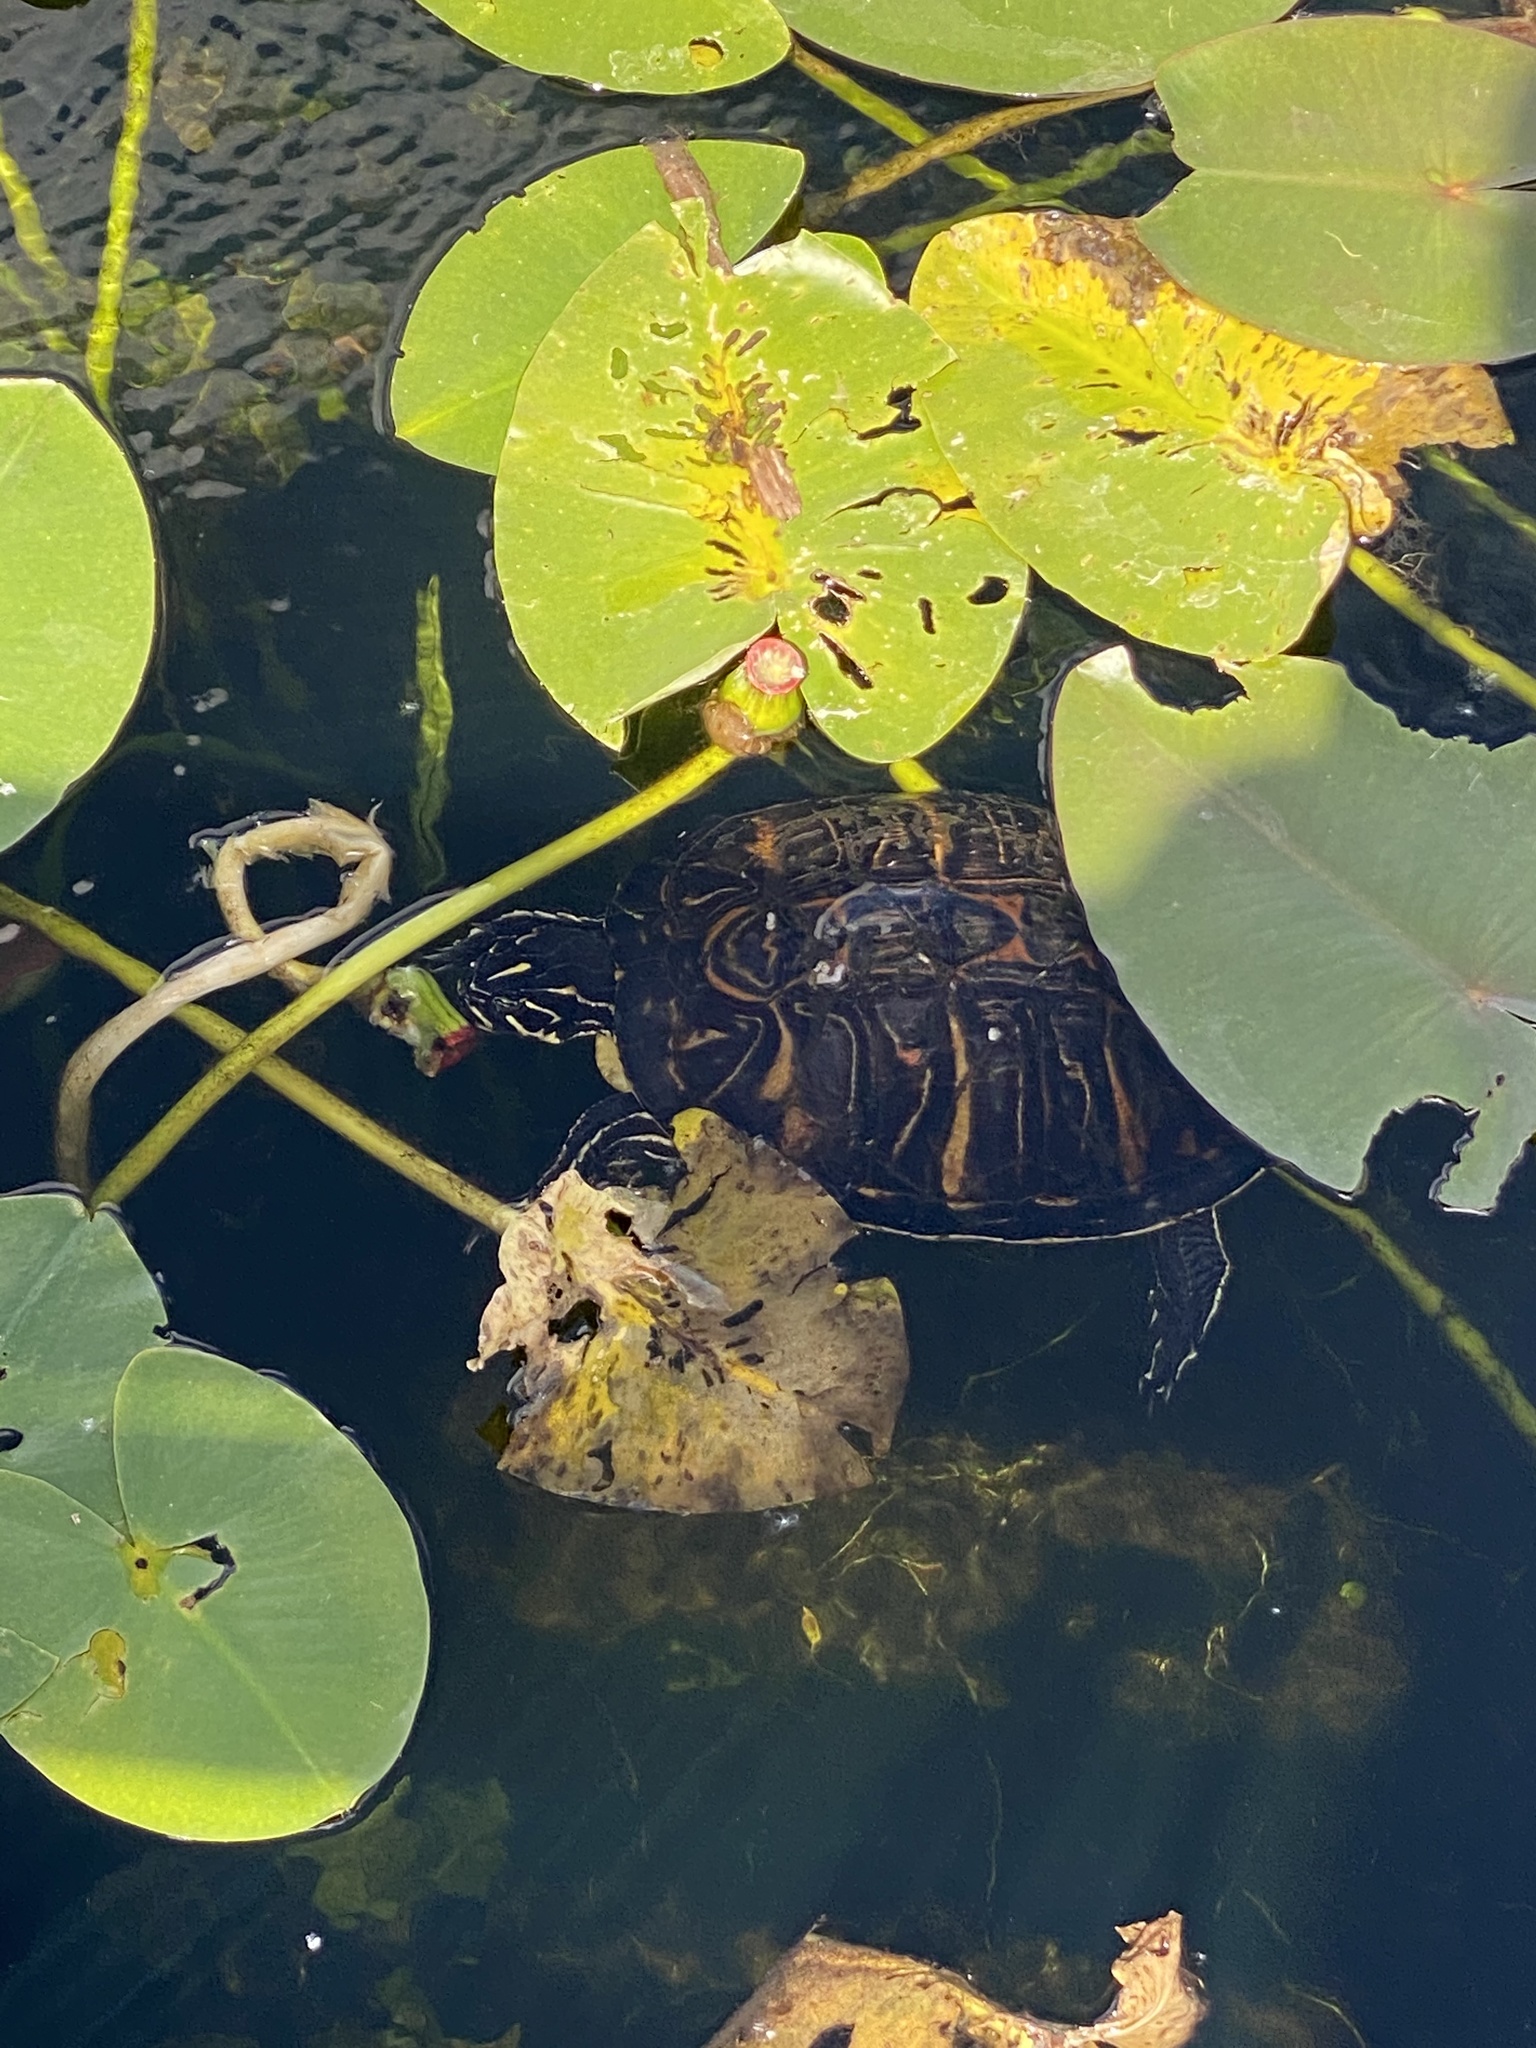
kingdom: Animalia
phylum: Chordata
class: Testudines
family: Emydidae
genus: Pseudemys
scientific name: Pseudemys nelsoni
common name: Florida red-bellied turtle
